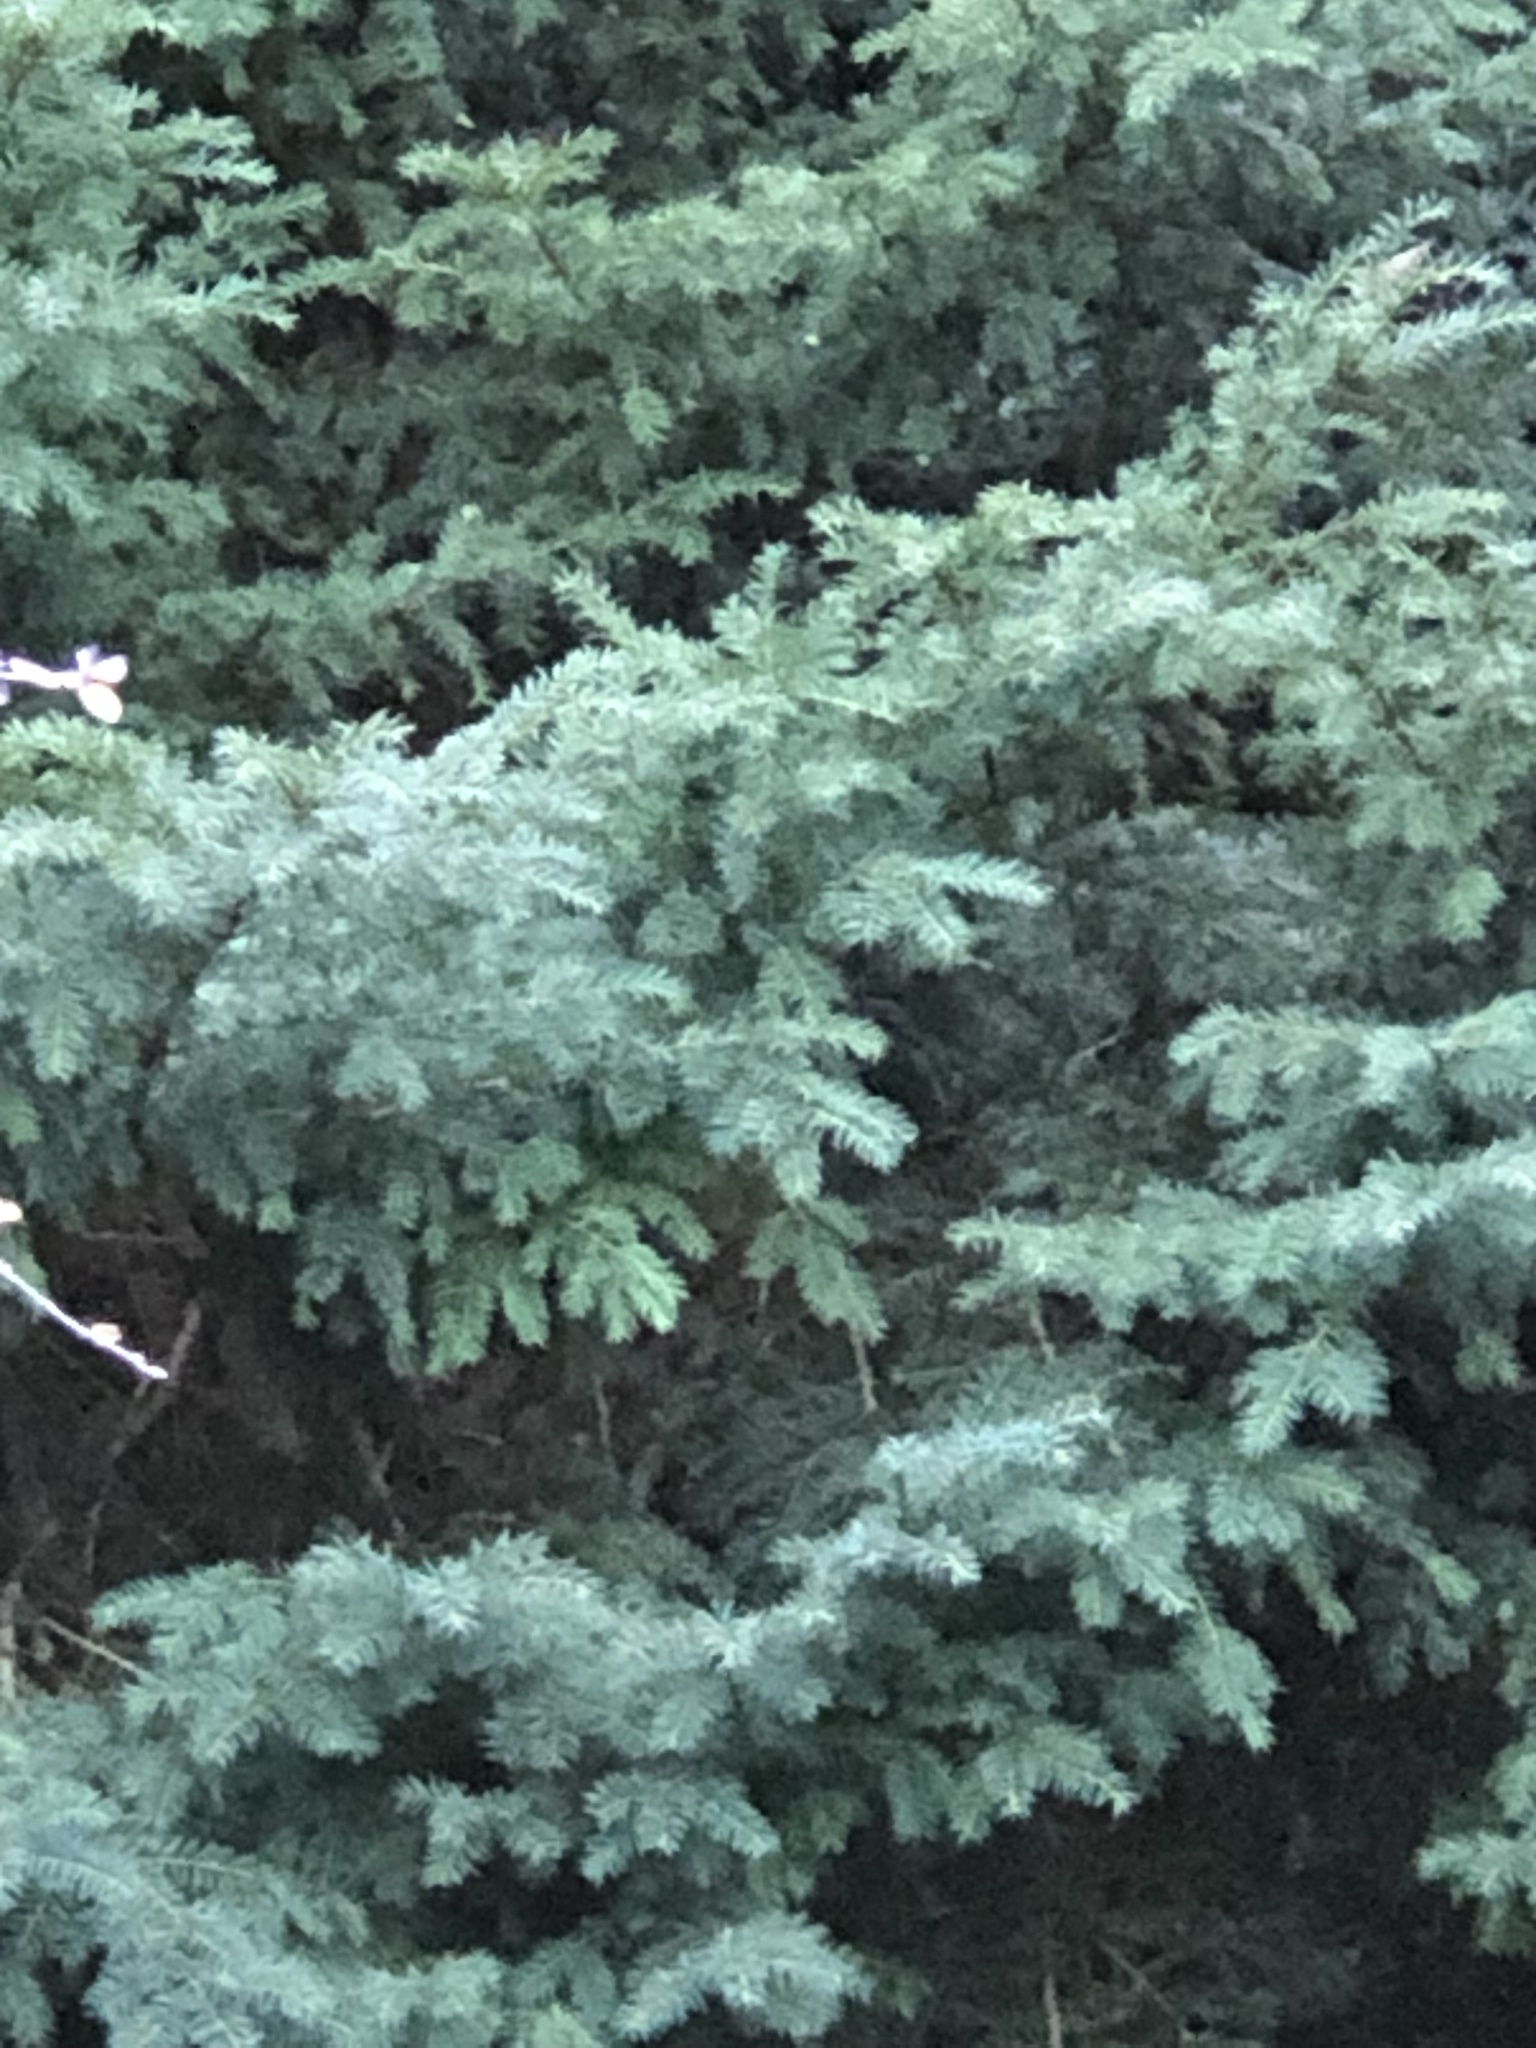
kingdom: Plantae
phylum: Tracheophyta
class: Pinopsida
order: Pinales
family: Taxaceae
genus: Taxus
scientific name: Taxus baccata
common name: Yew
